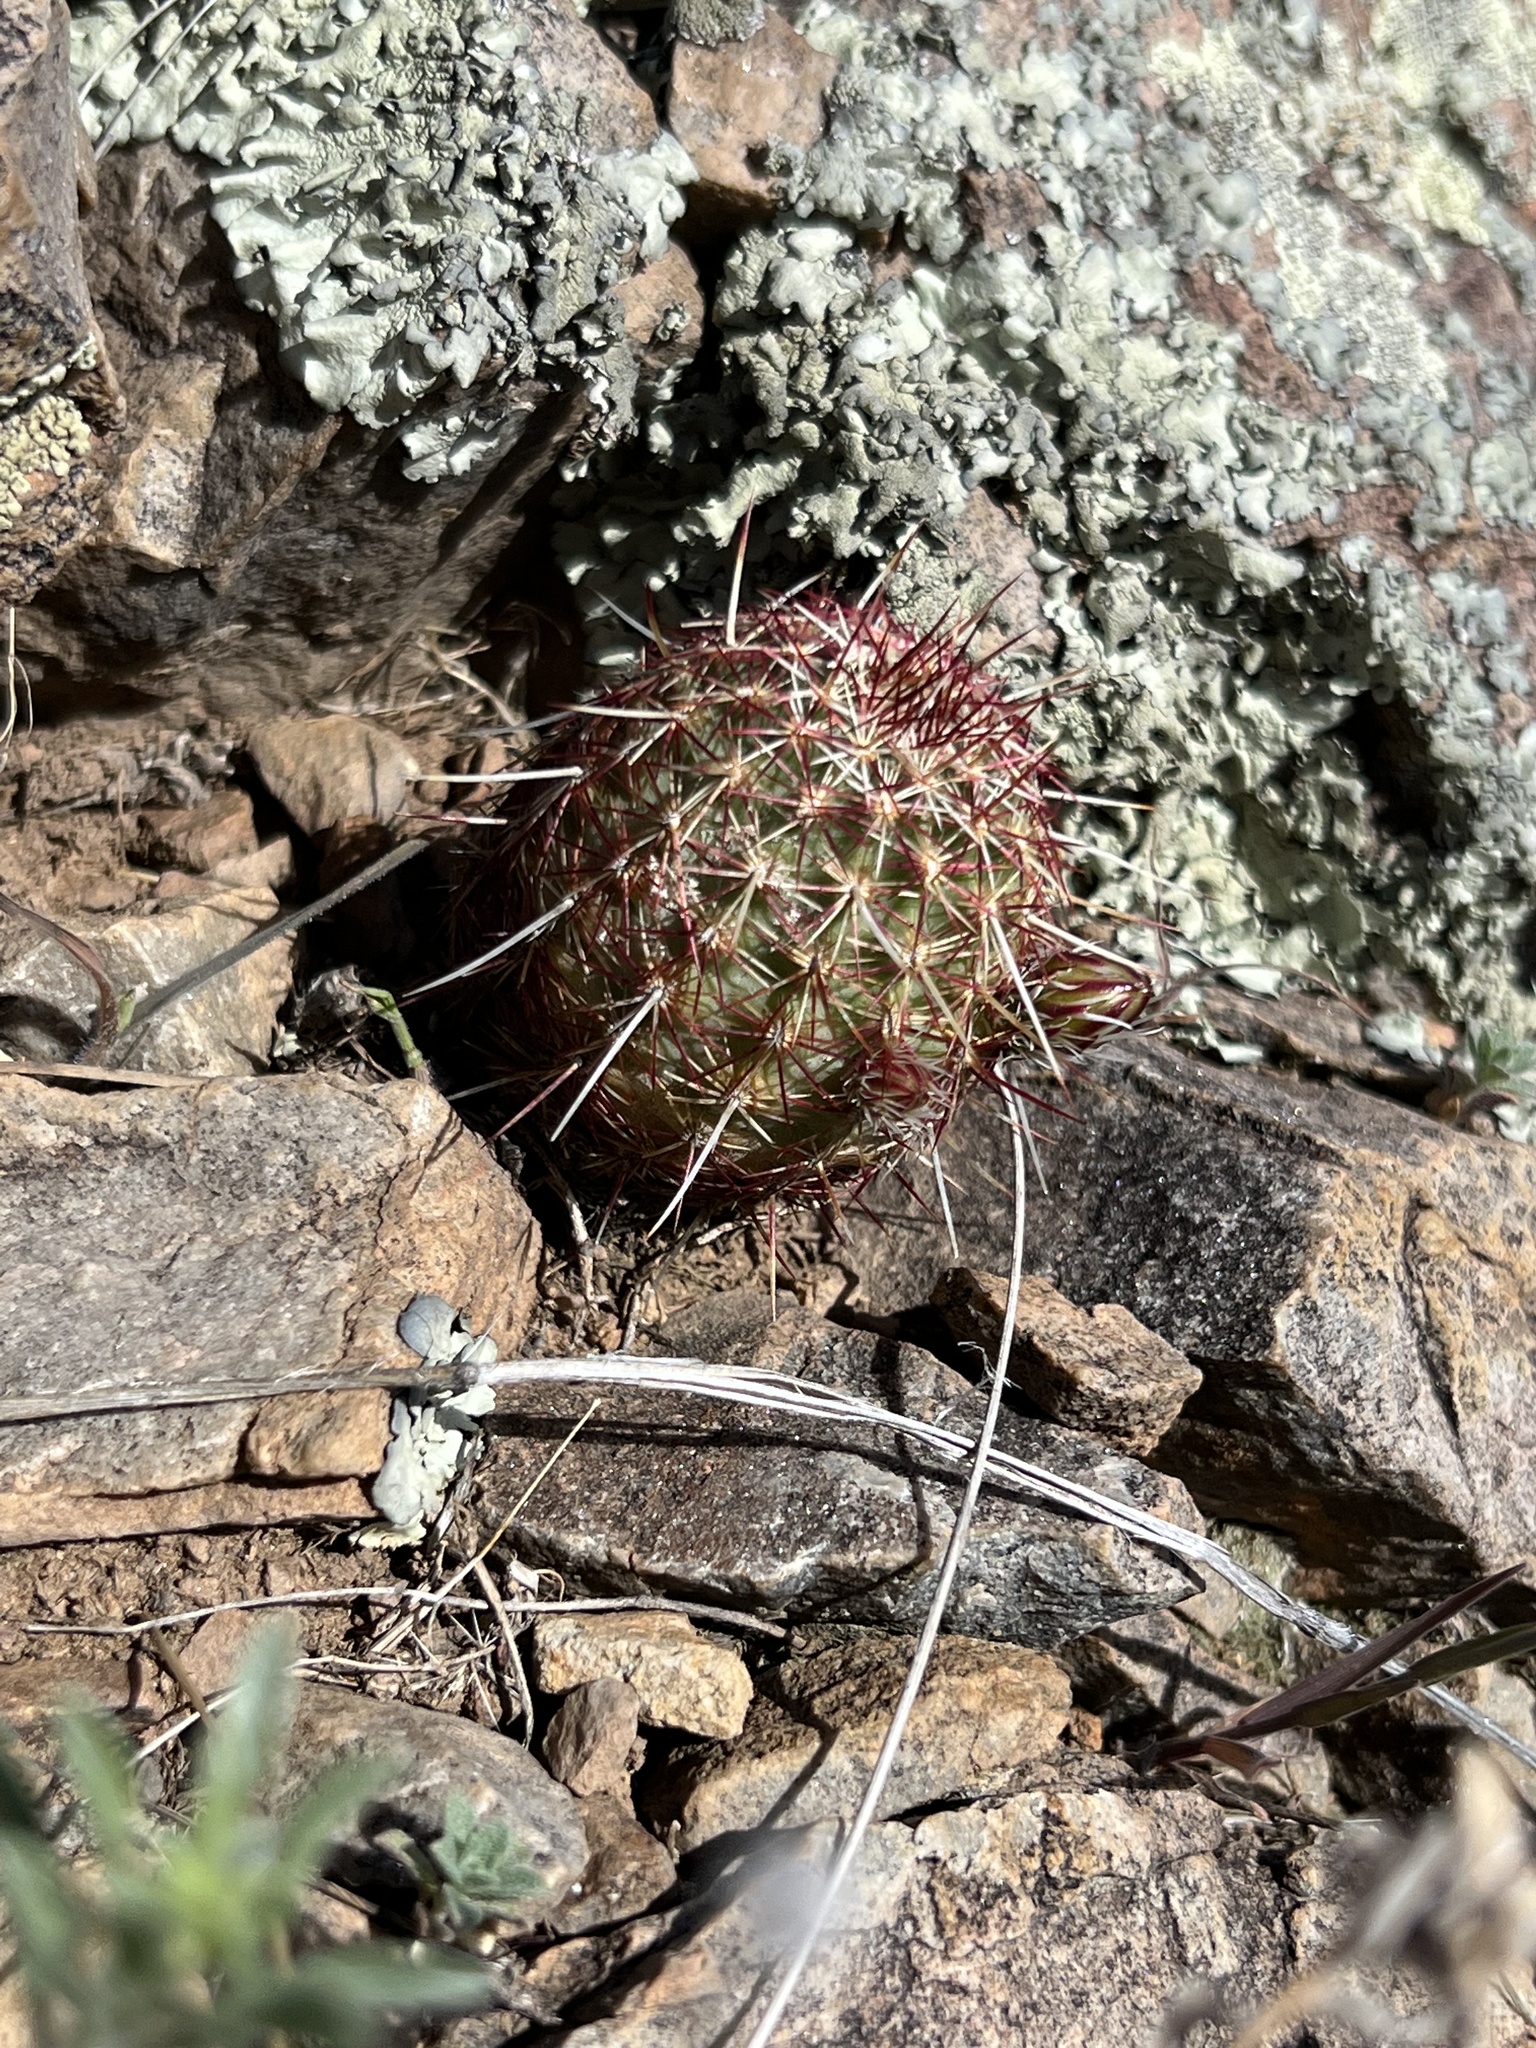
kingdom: Plantae
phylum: Tracheophyta
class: Magnoliopsida
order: Caryophyllales
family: Cactaceae
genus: Echinocereus
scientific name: Echinocereus viridiflorus
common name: Nylon hedgehog cactus
